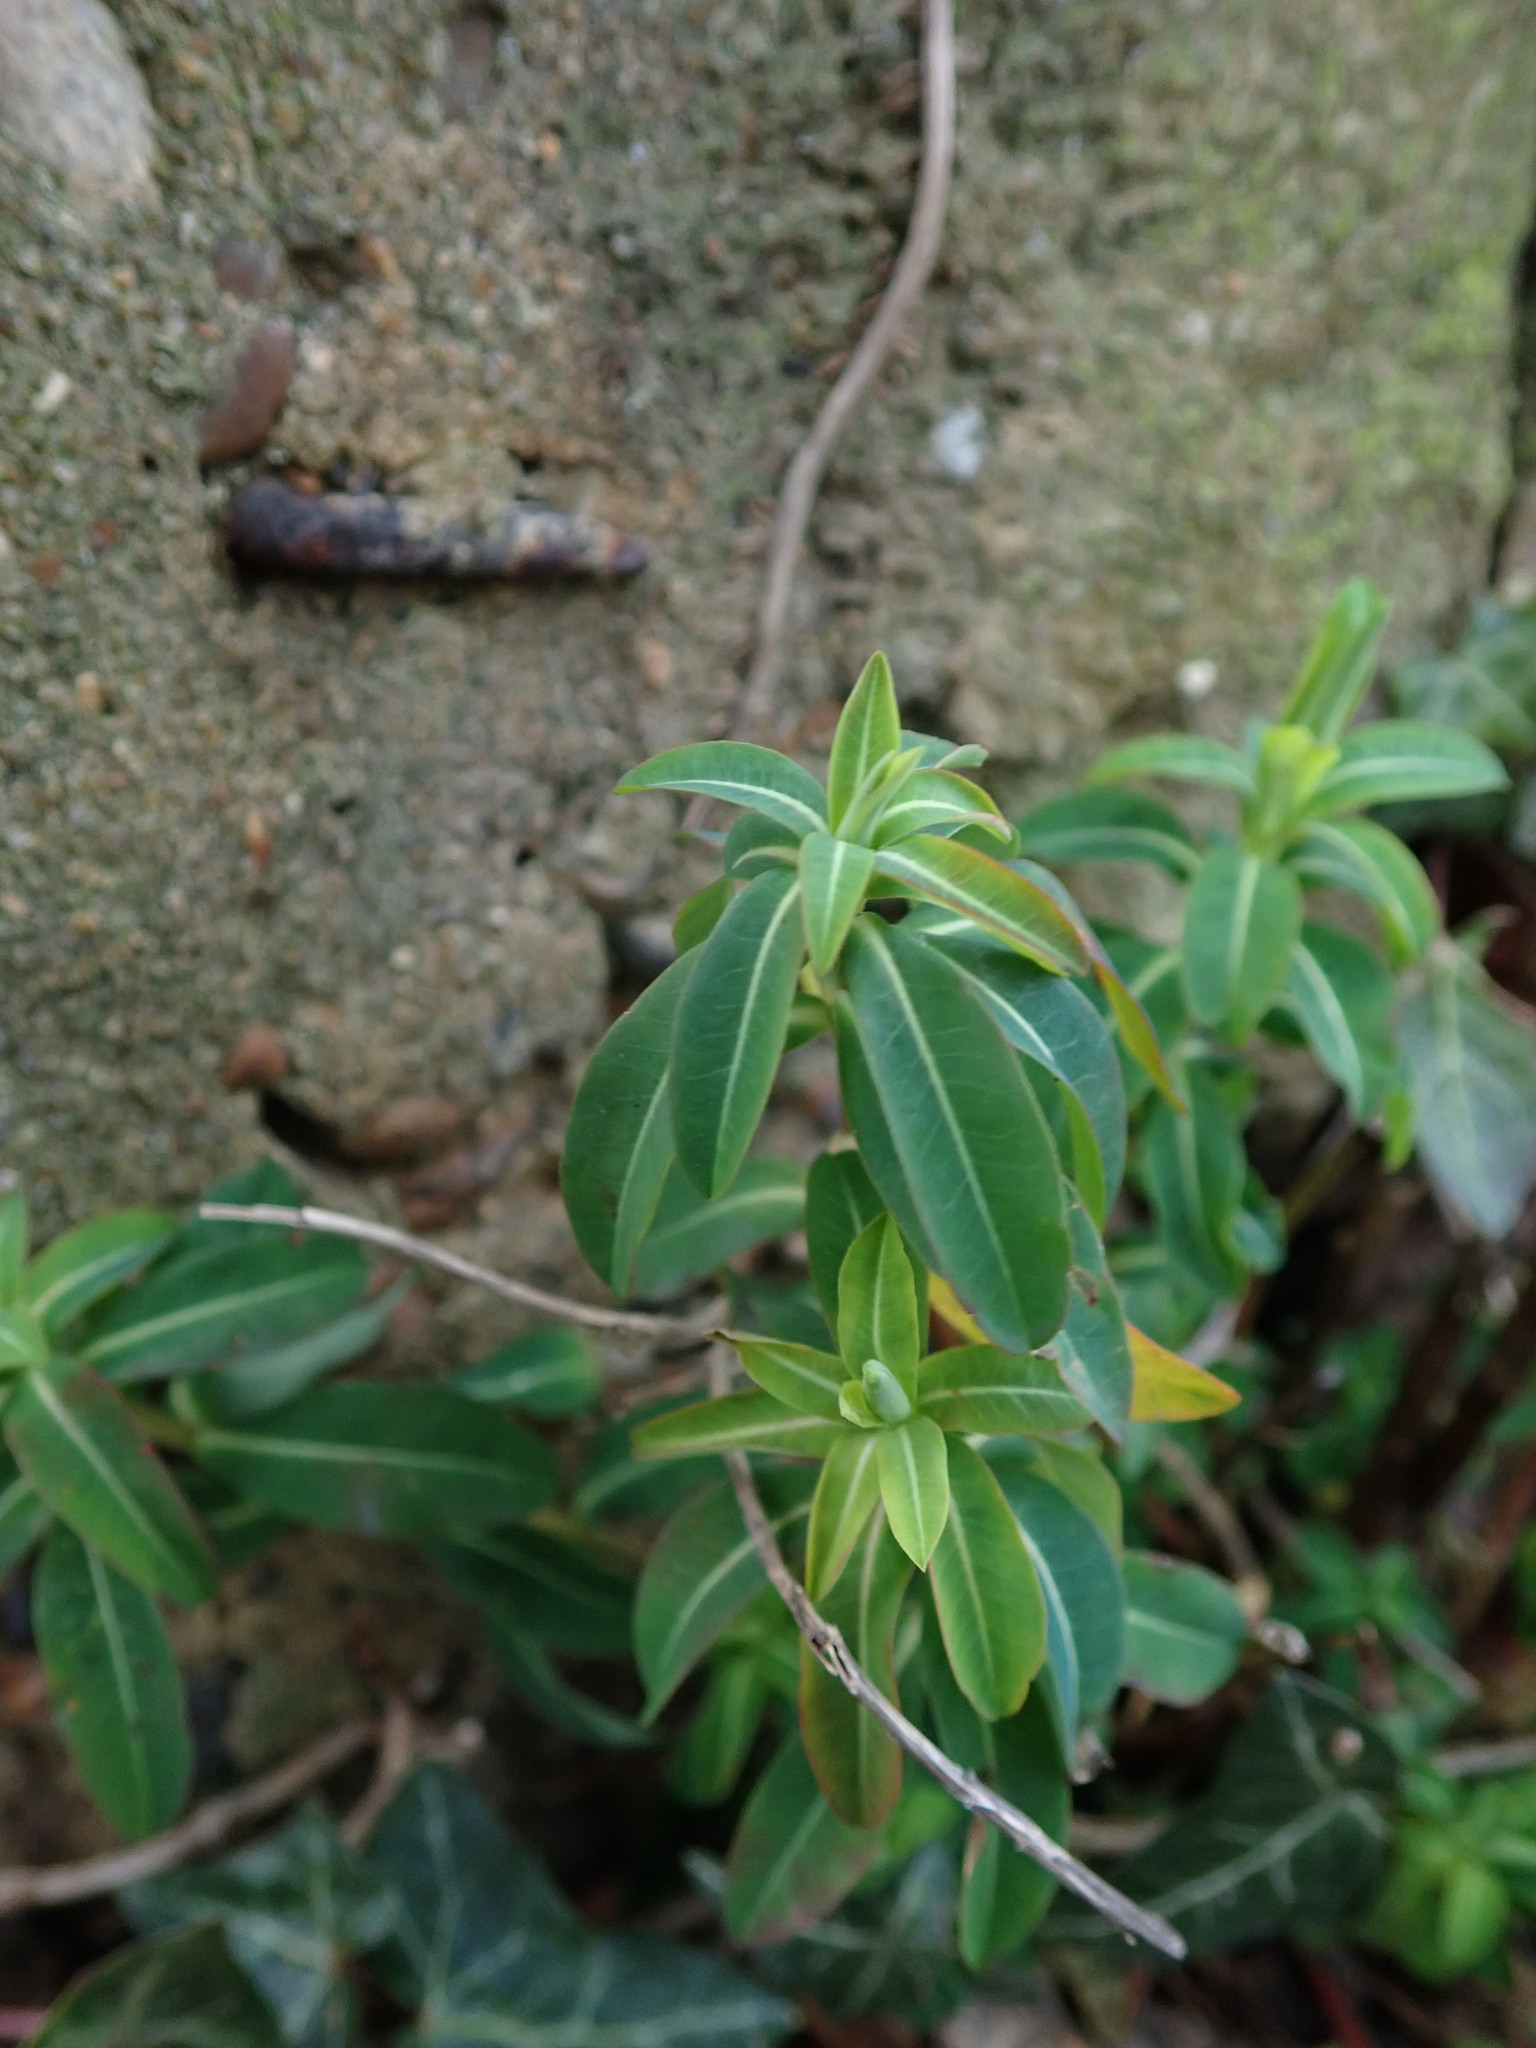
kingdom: Plantae
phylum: Tracheophyta
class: Magnoliopsida
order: Malpighiales
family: Euphorbiaceae
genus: Euphorbia
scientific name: Euphorbia oblongata
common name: Balkan spurge
